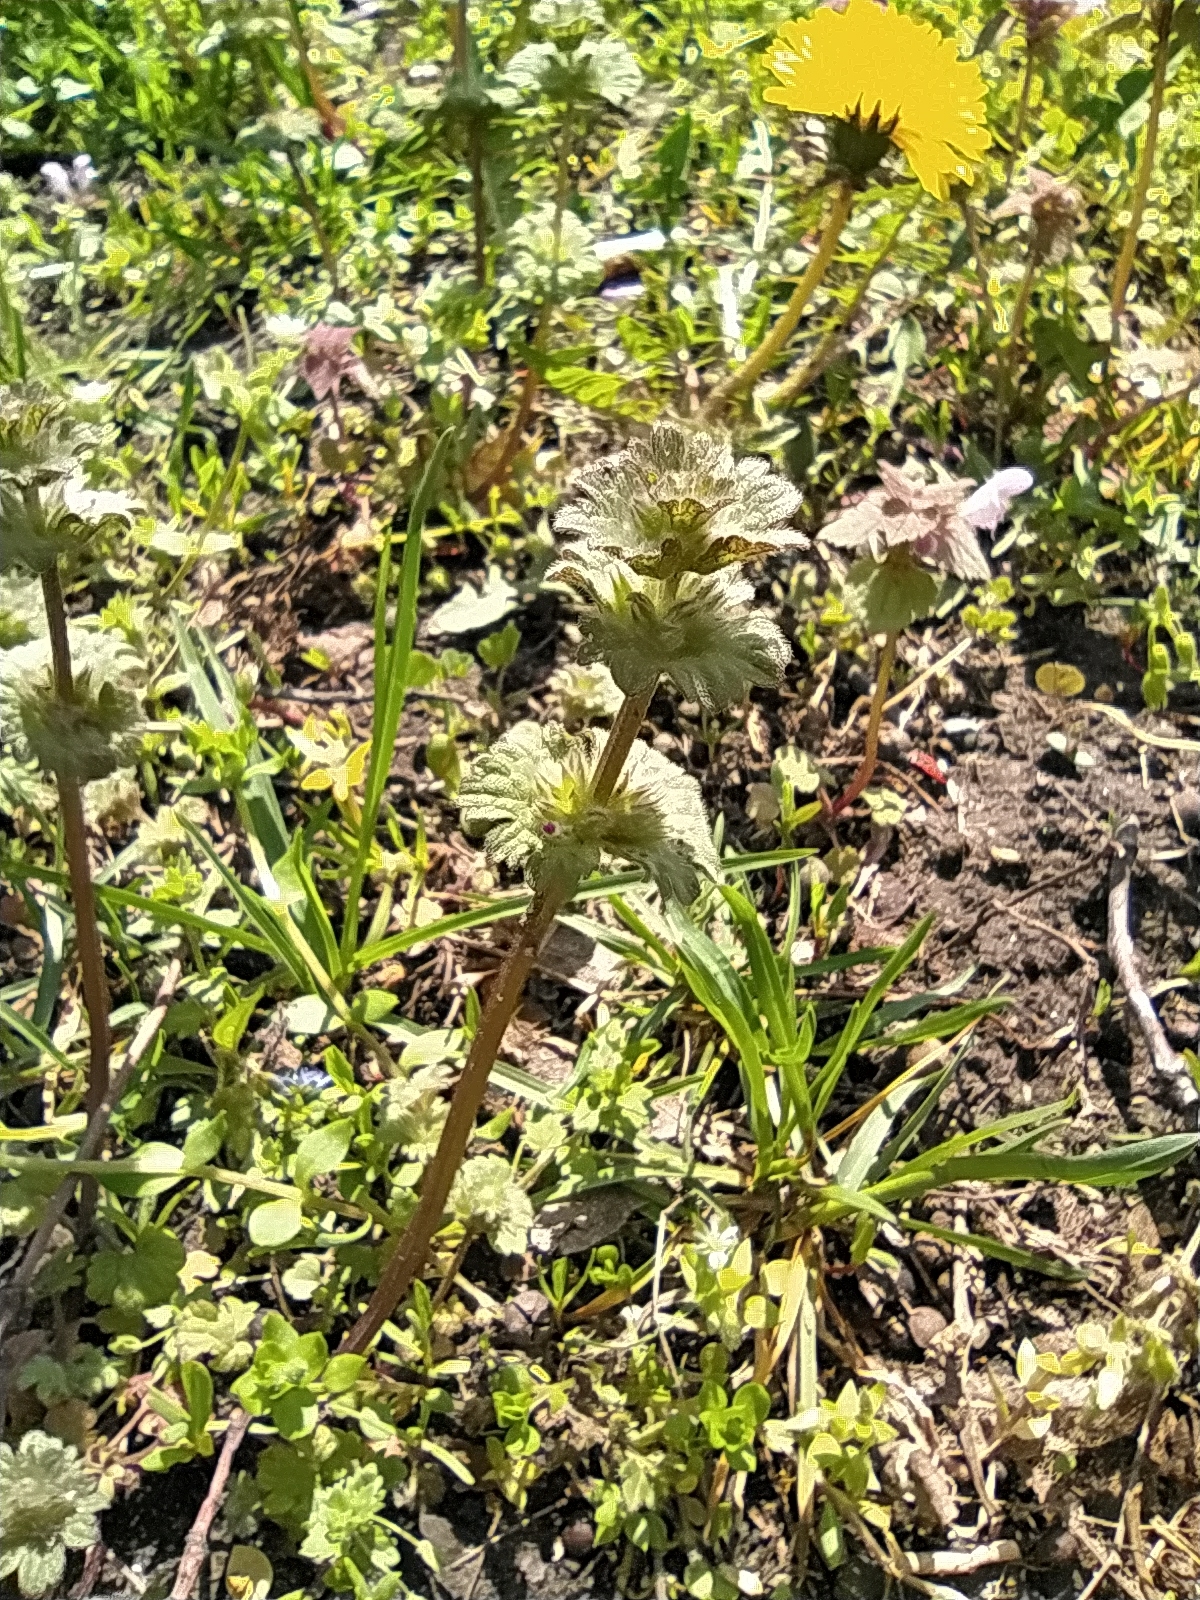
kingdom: Plantae
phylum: Tracheophyta
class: Magnoliopsida
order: Lamiales
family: Lamiaceae
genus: Lamium
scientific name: Lamium amplexicaule
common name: Henbit dead-nettle
